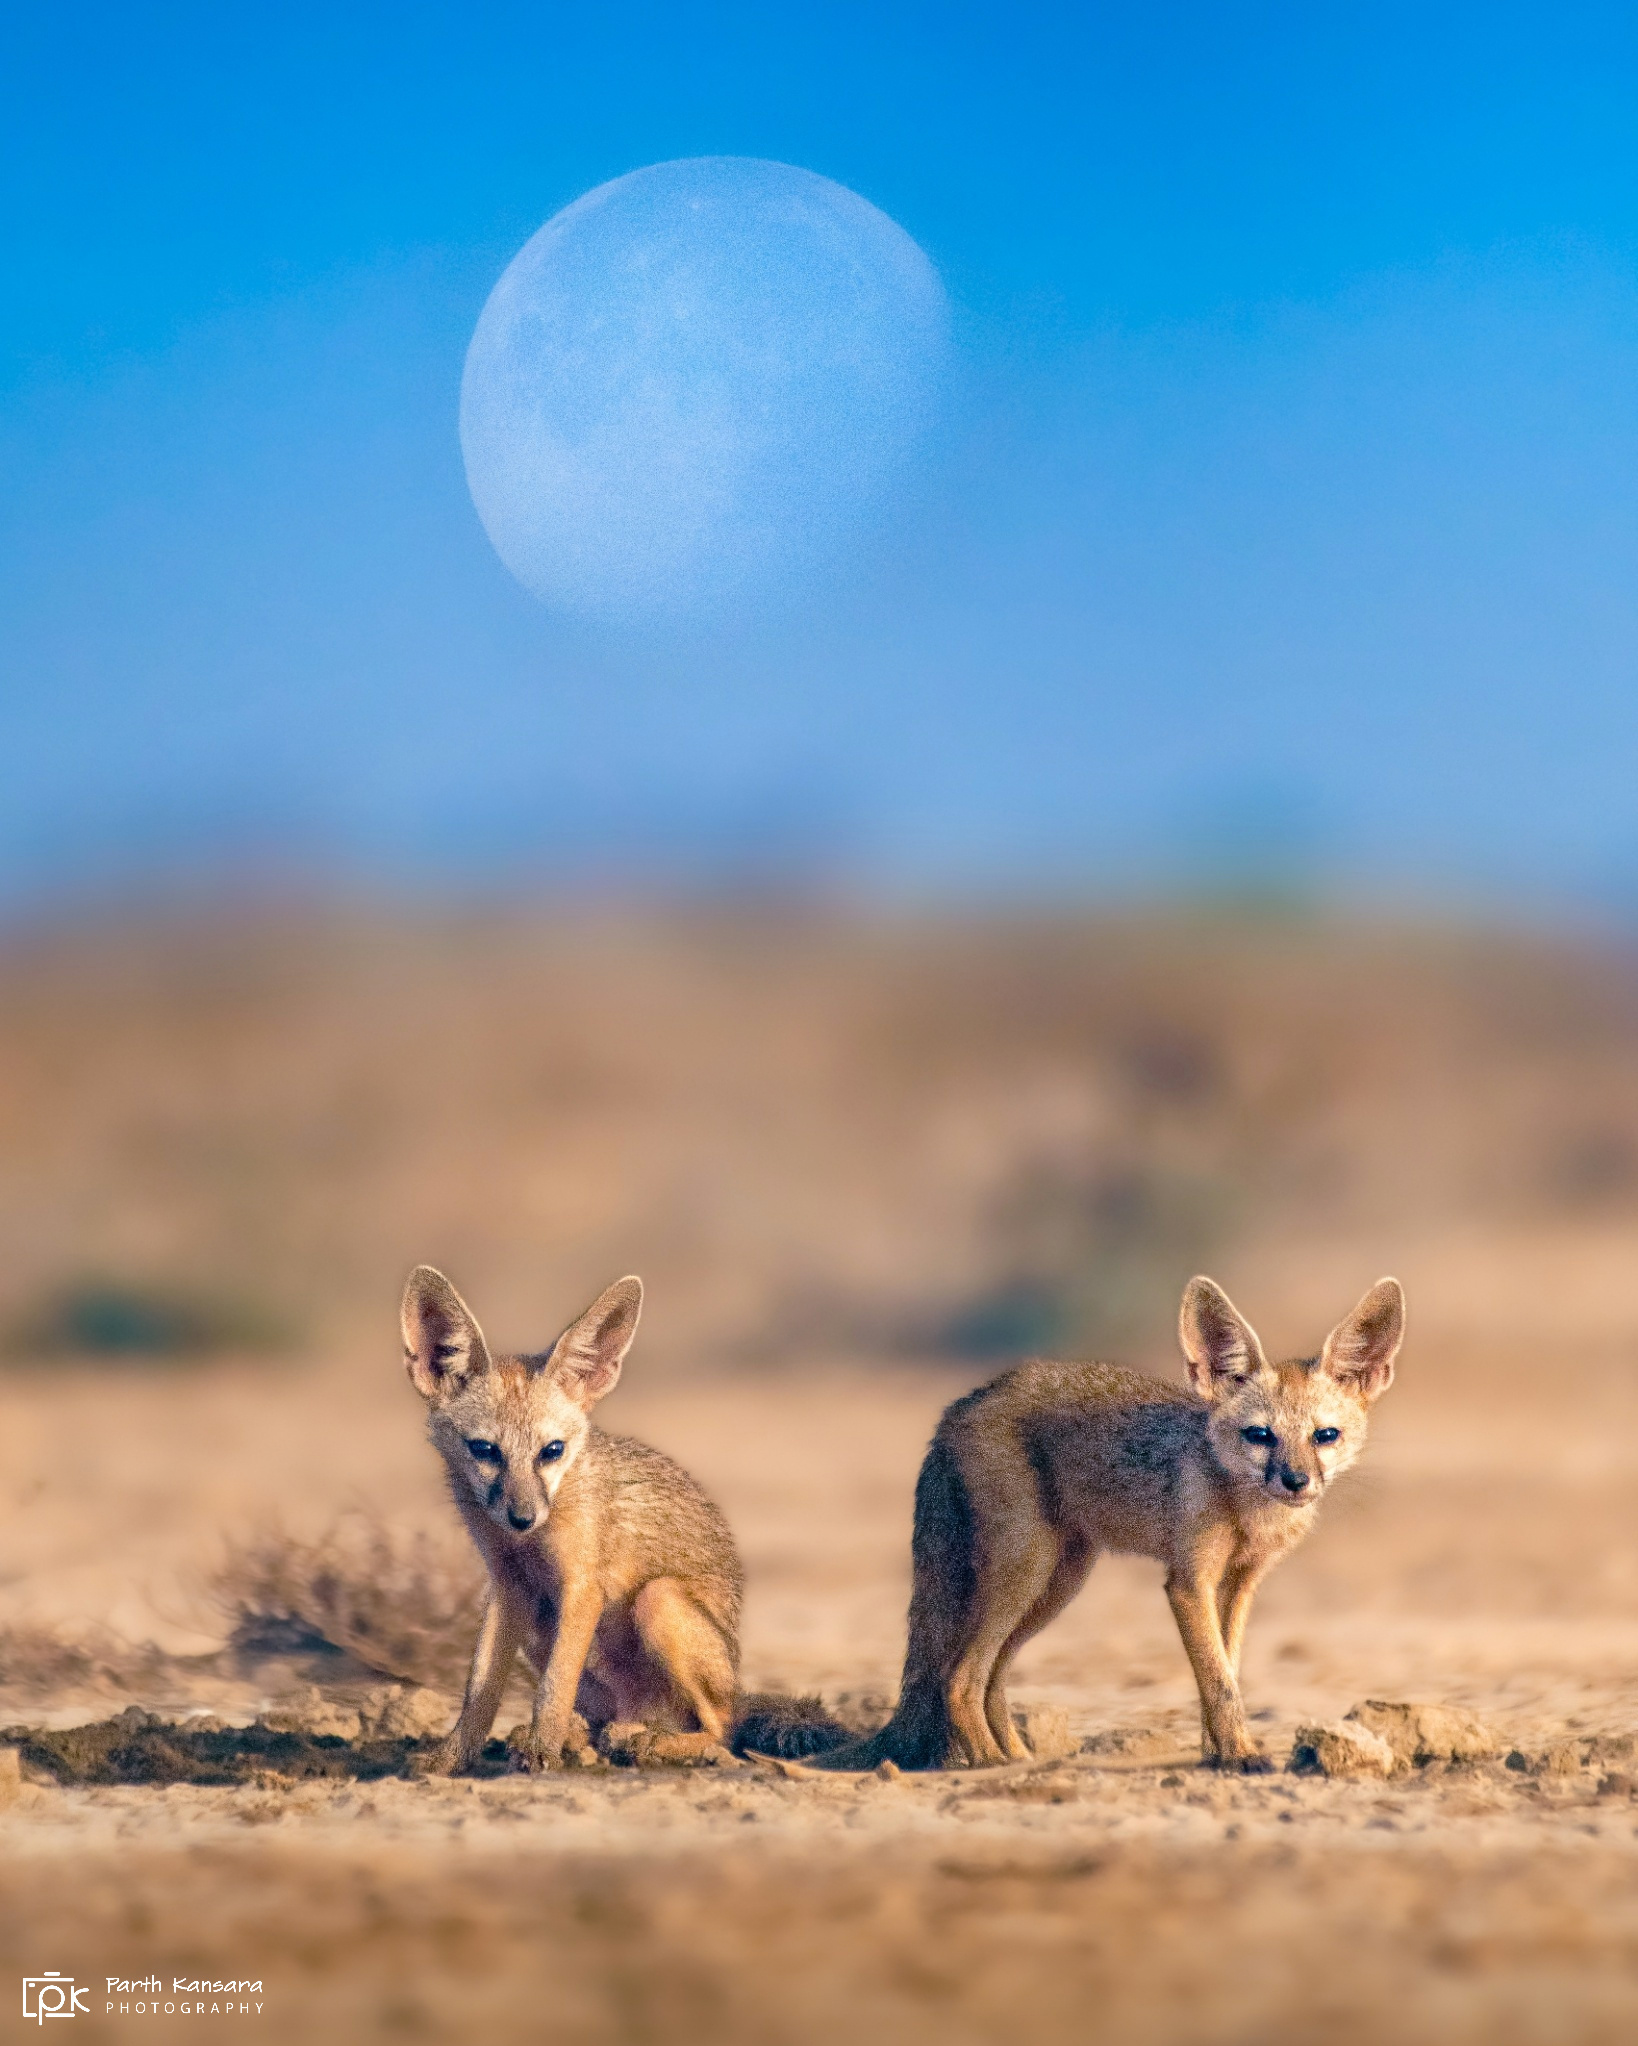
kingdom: Animalia
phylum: Chordata
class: Mammalia
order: Carnivora
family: Canidae
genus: Vulpes
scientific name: Vulpes bengalensis
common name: Bengal fox
